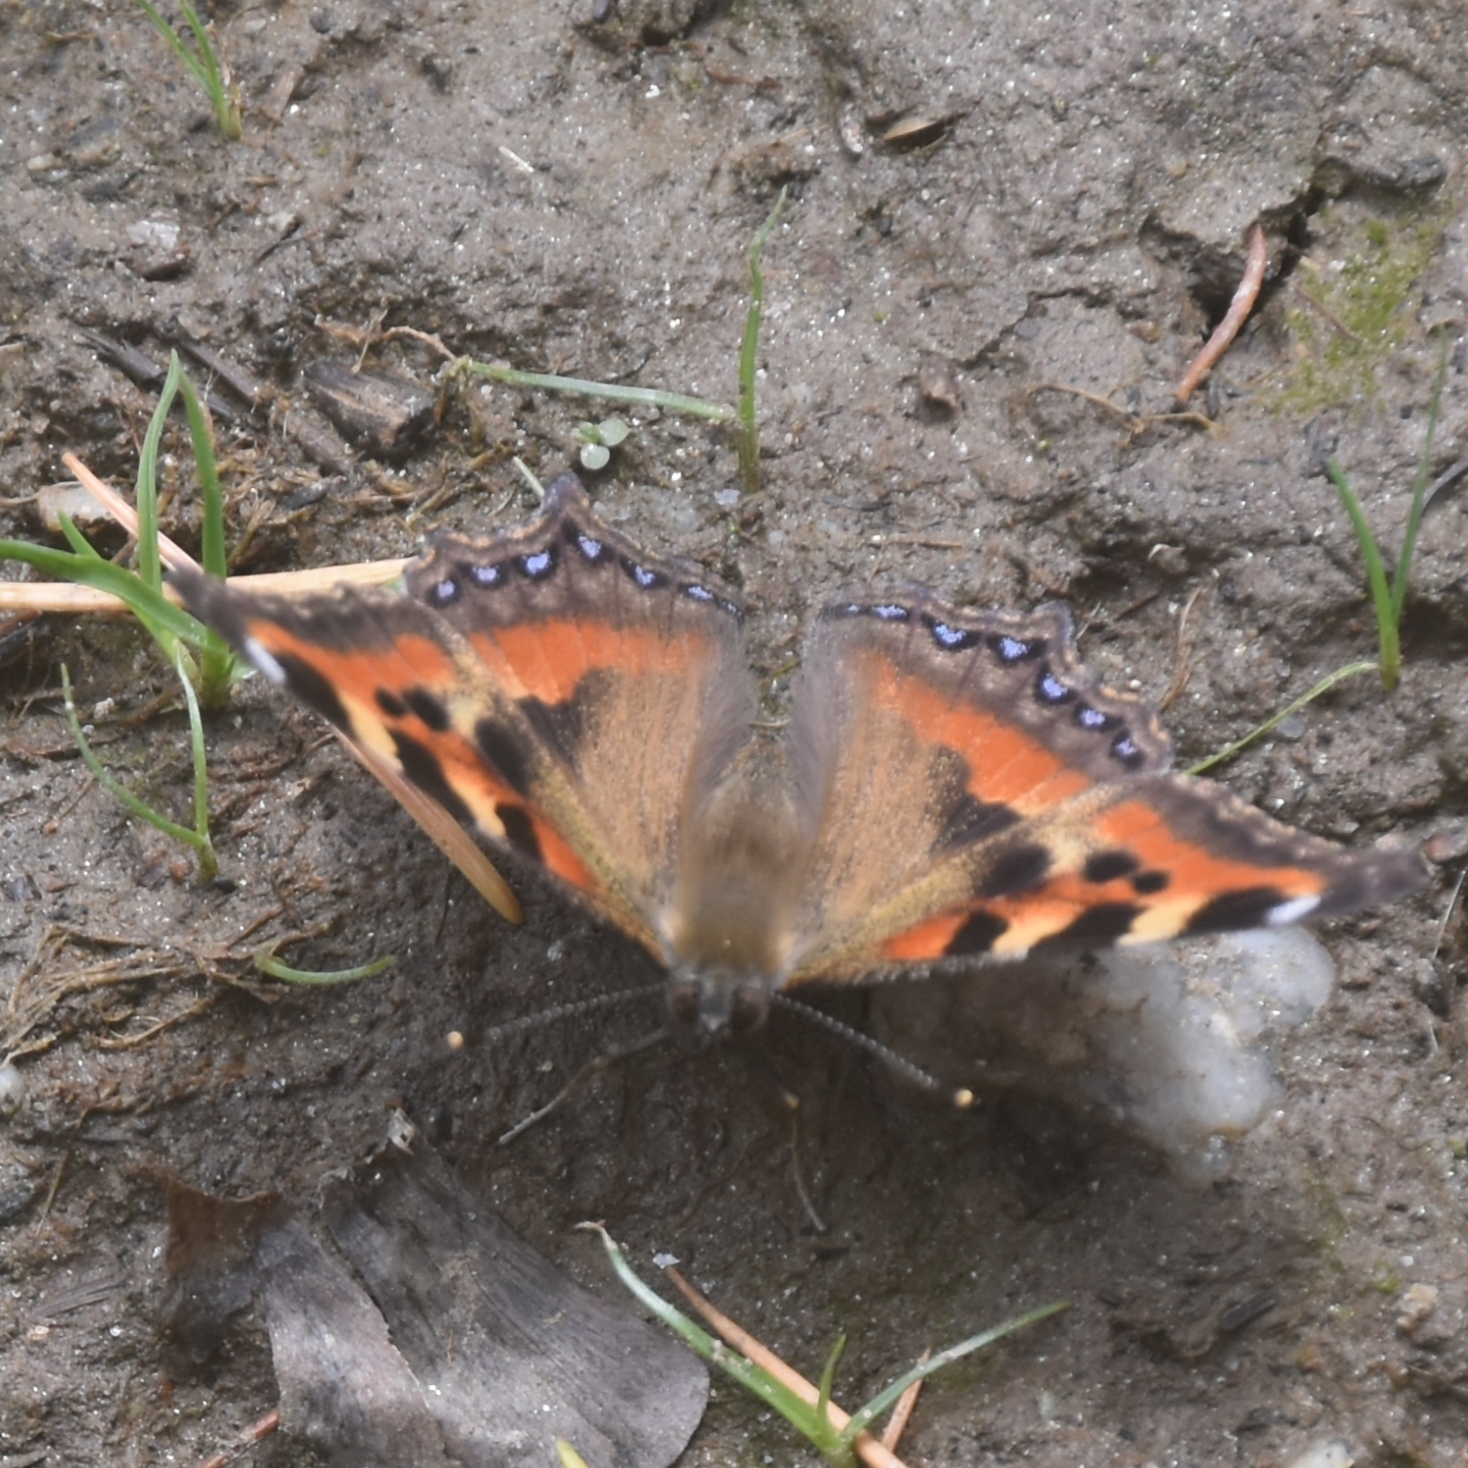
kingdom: Animalia
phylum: Arthropoda
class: Insecta
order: Lepidoptera
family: Nymphalidae
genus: Aglais
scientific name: Aglais caschmirensis
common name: Indian tortoiseshell
